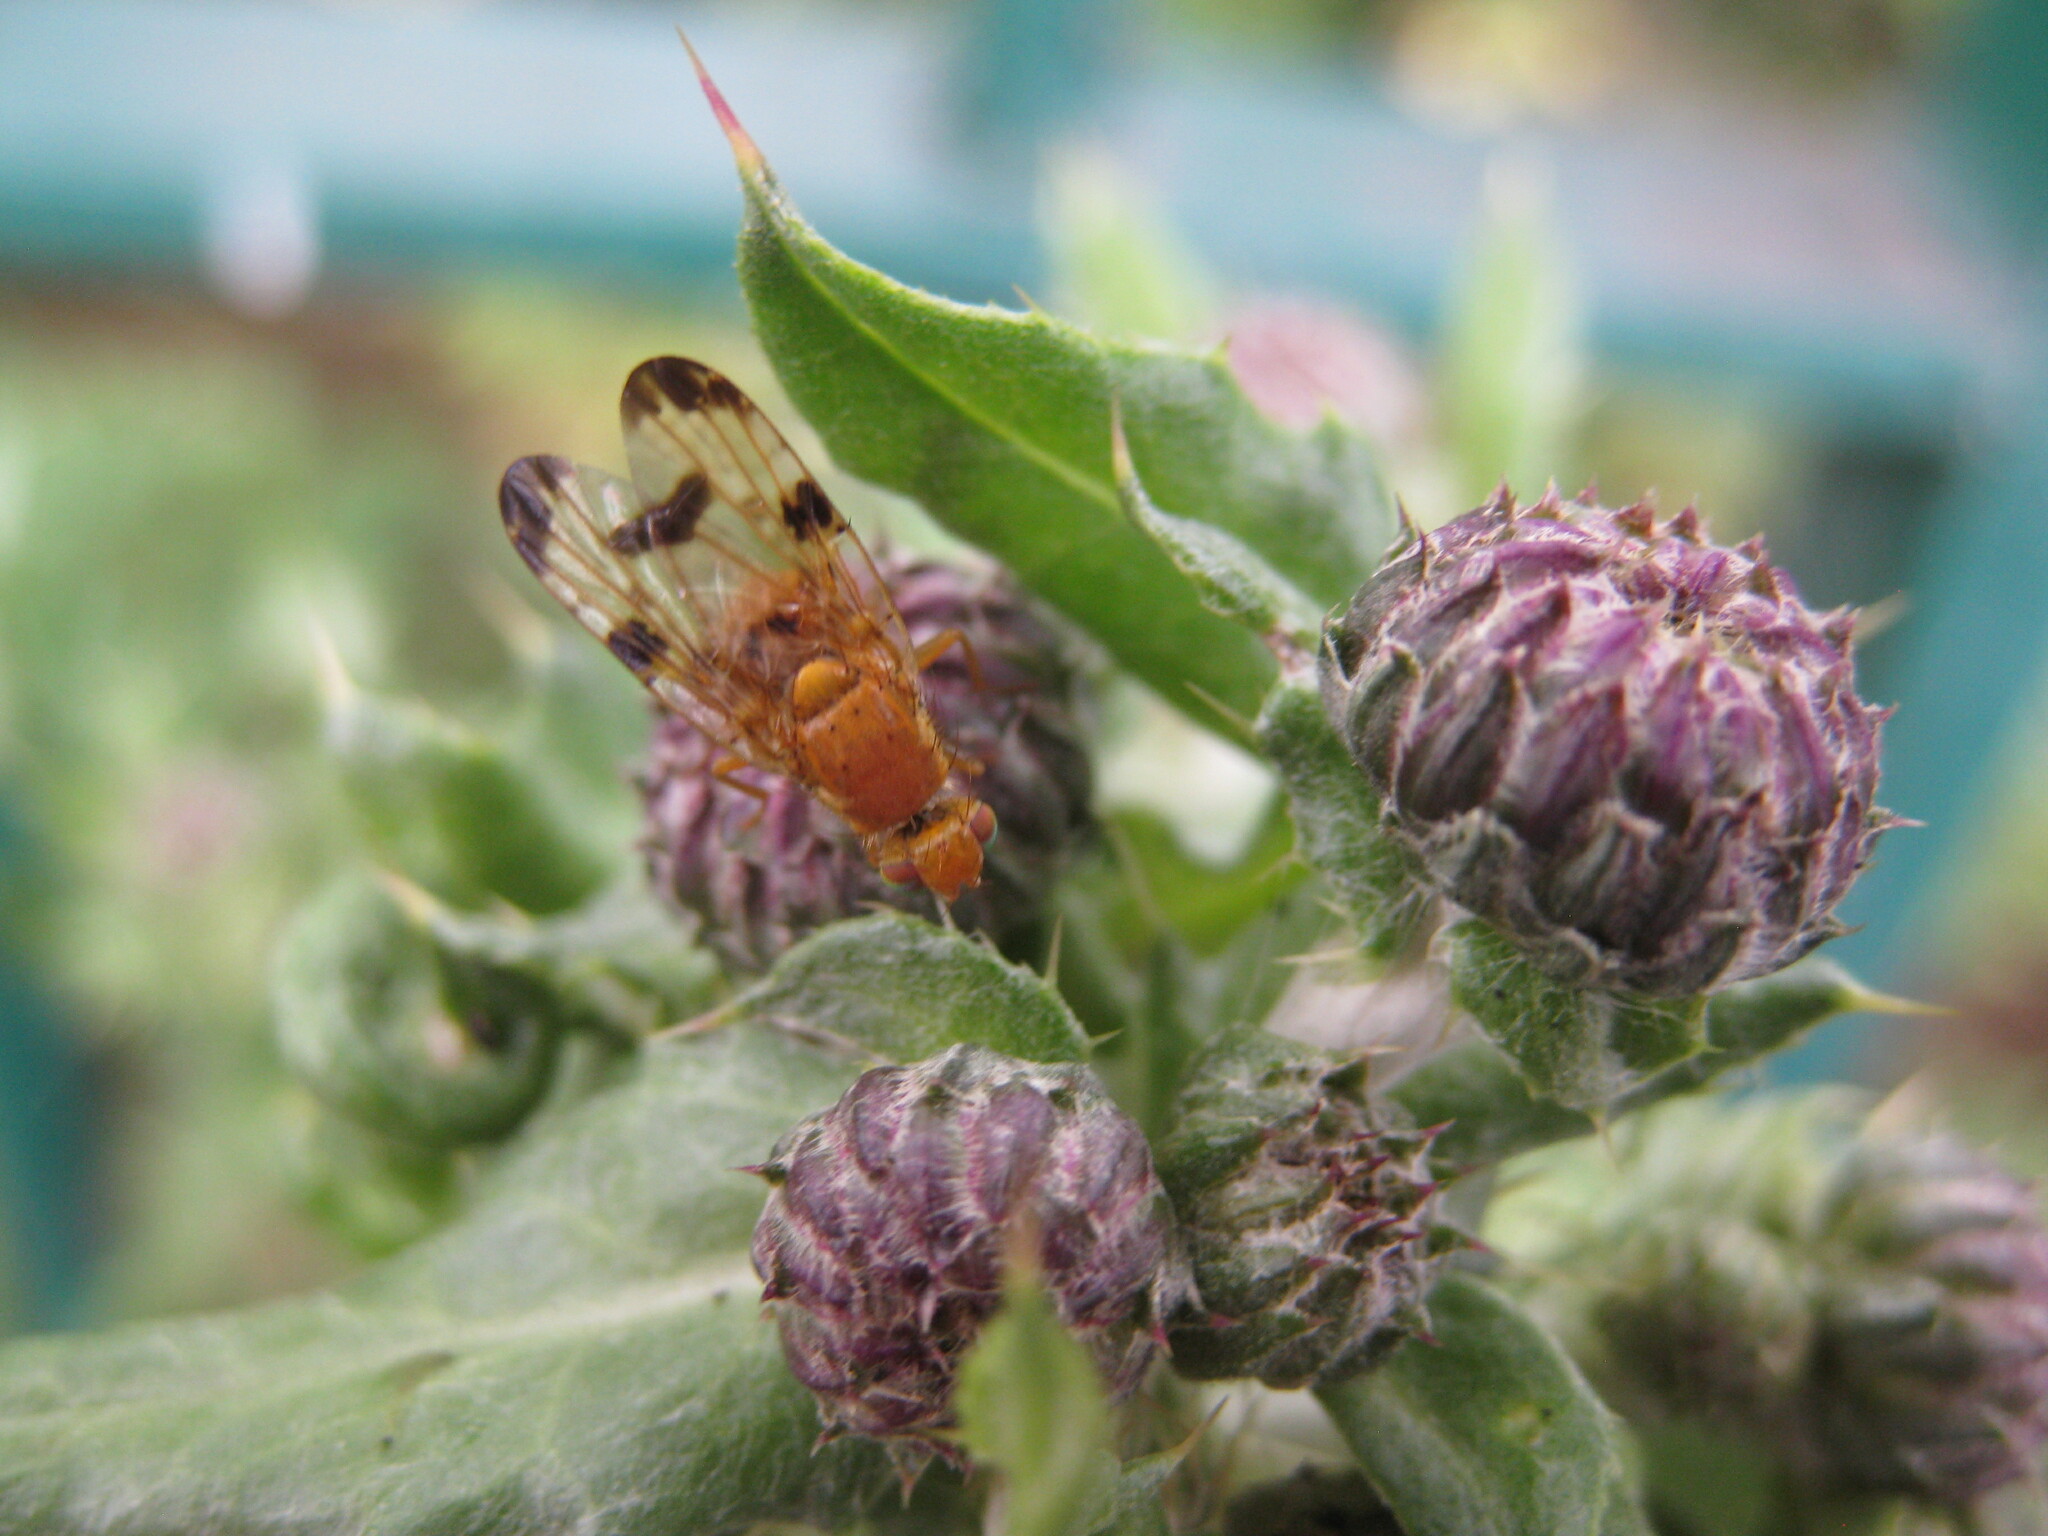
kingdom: Animalia
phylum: Arthropoda
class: Insecta
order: Diptera
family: Tephritidae
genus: Xyphosia
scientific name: Xyphosia miliaria
